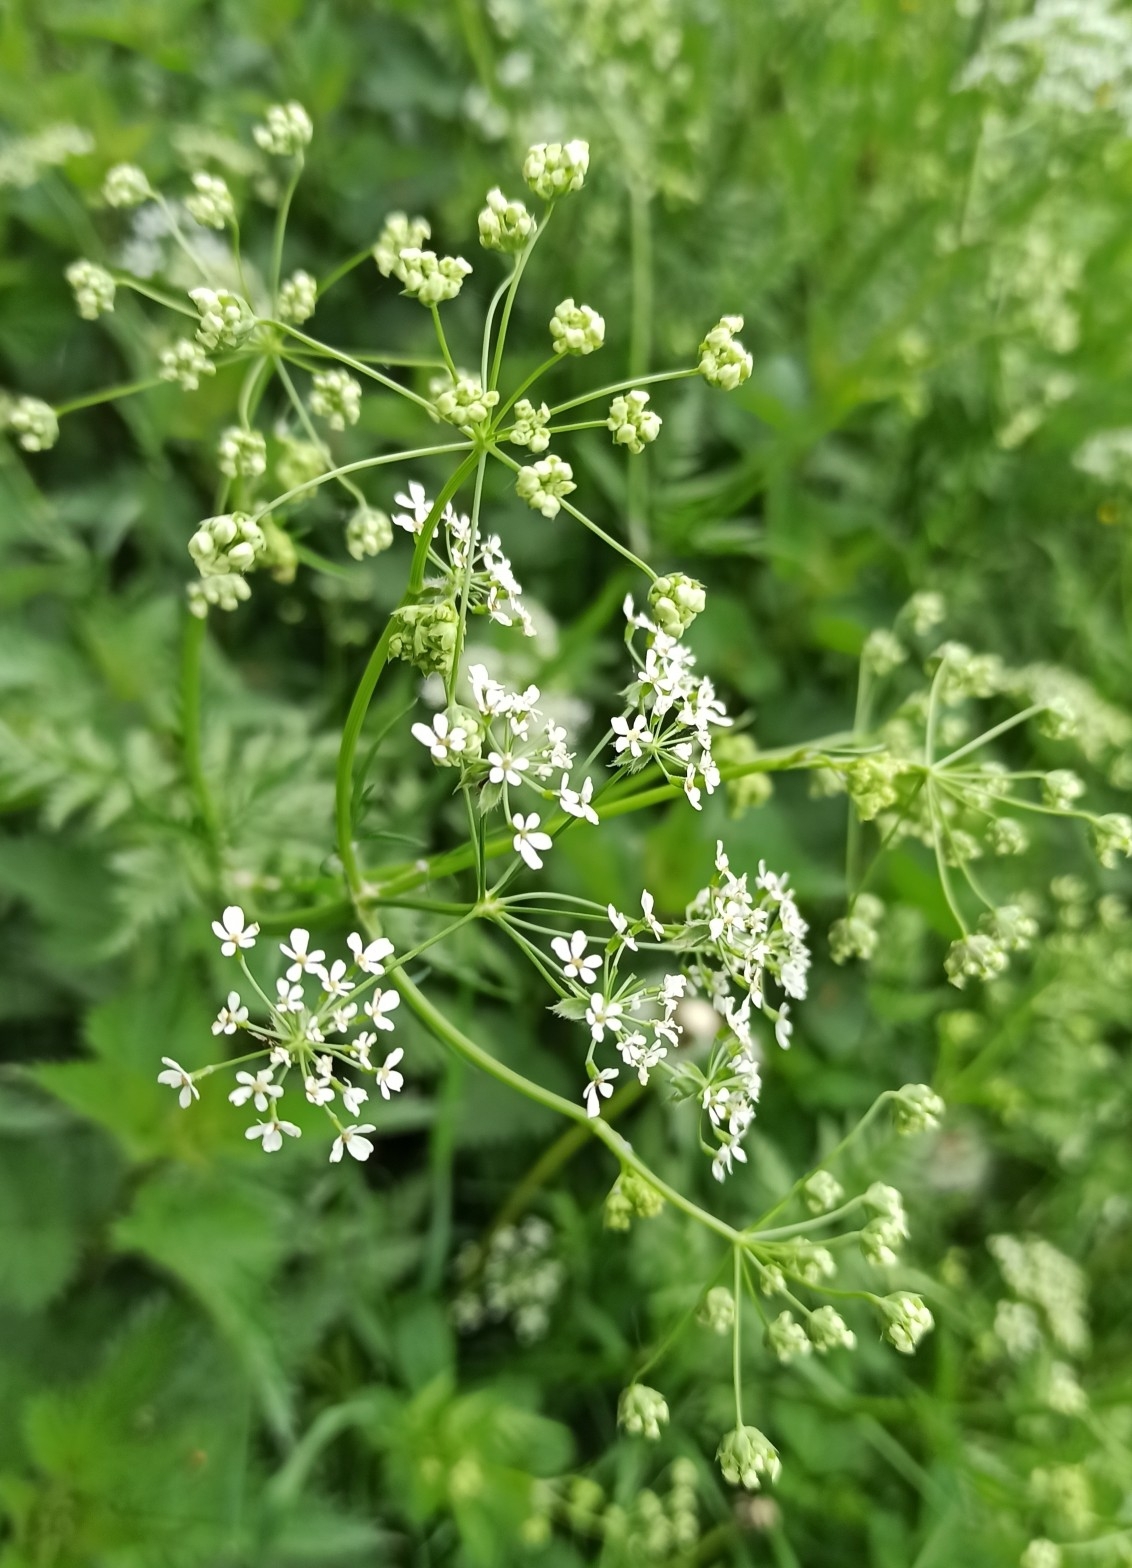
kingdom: Plantae
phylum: Tracheophyta
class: Magnoliopsida
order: Apiales
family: Apiaceae
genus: Anthriscus
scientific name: Anthriscus sylvestris
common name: Cow parsley
